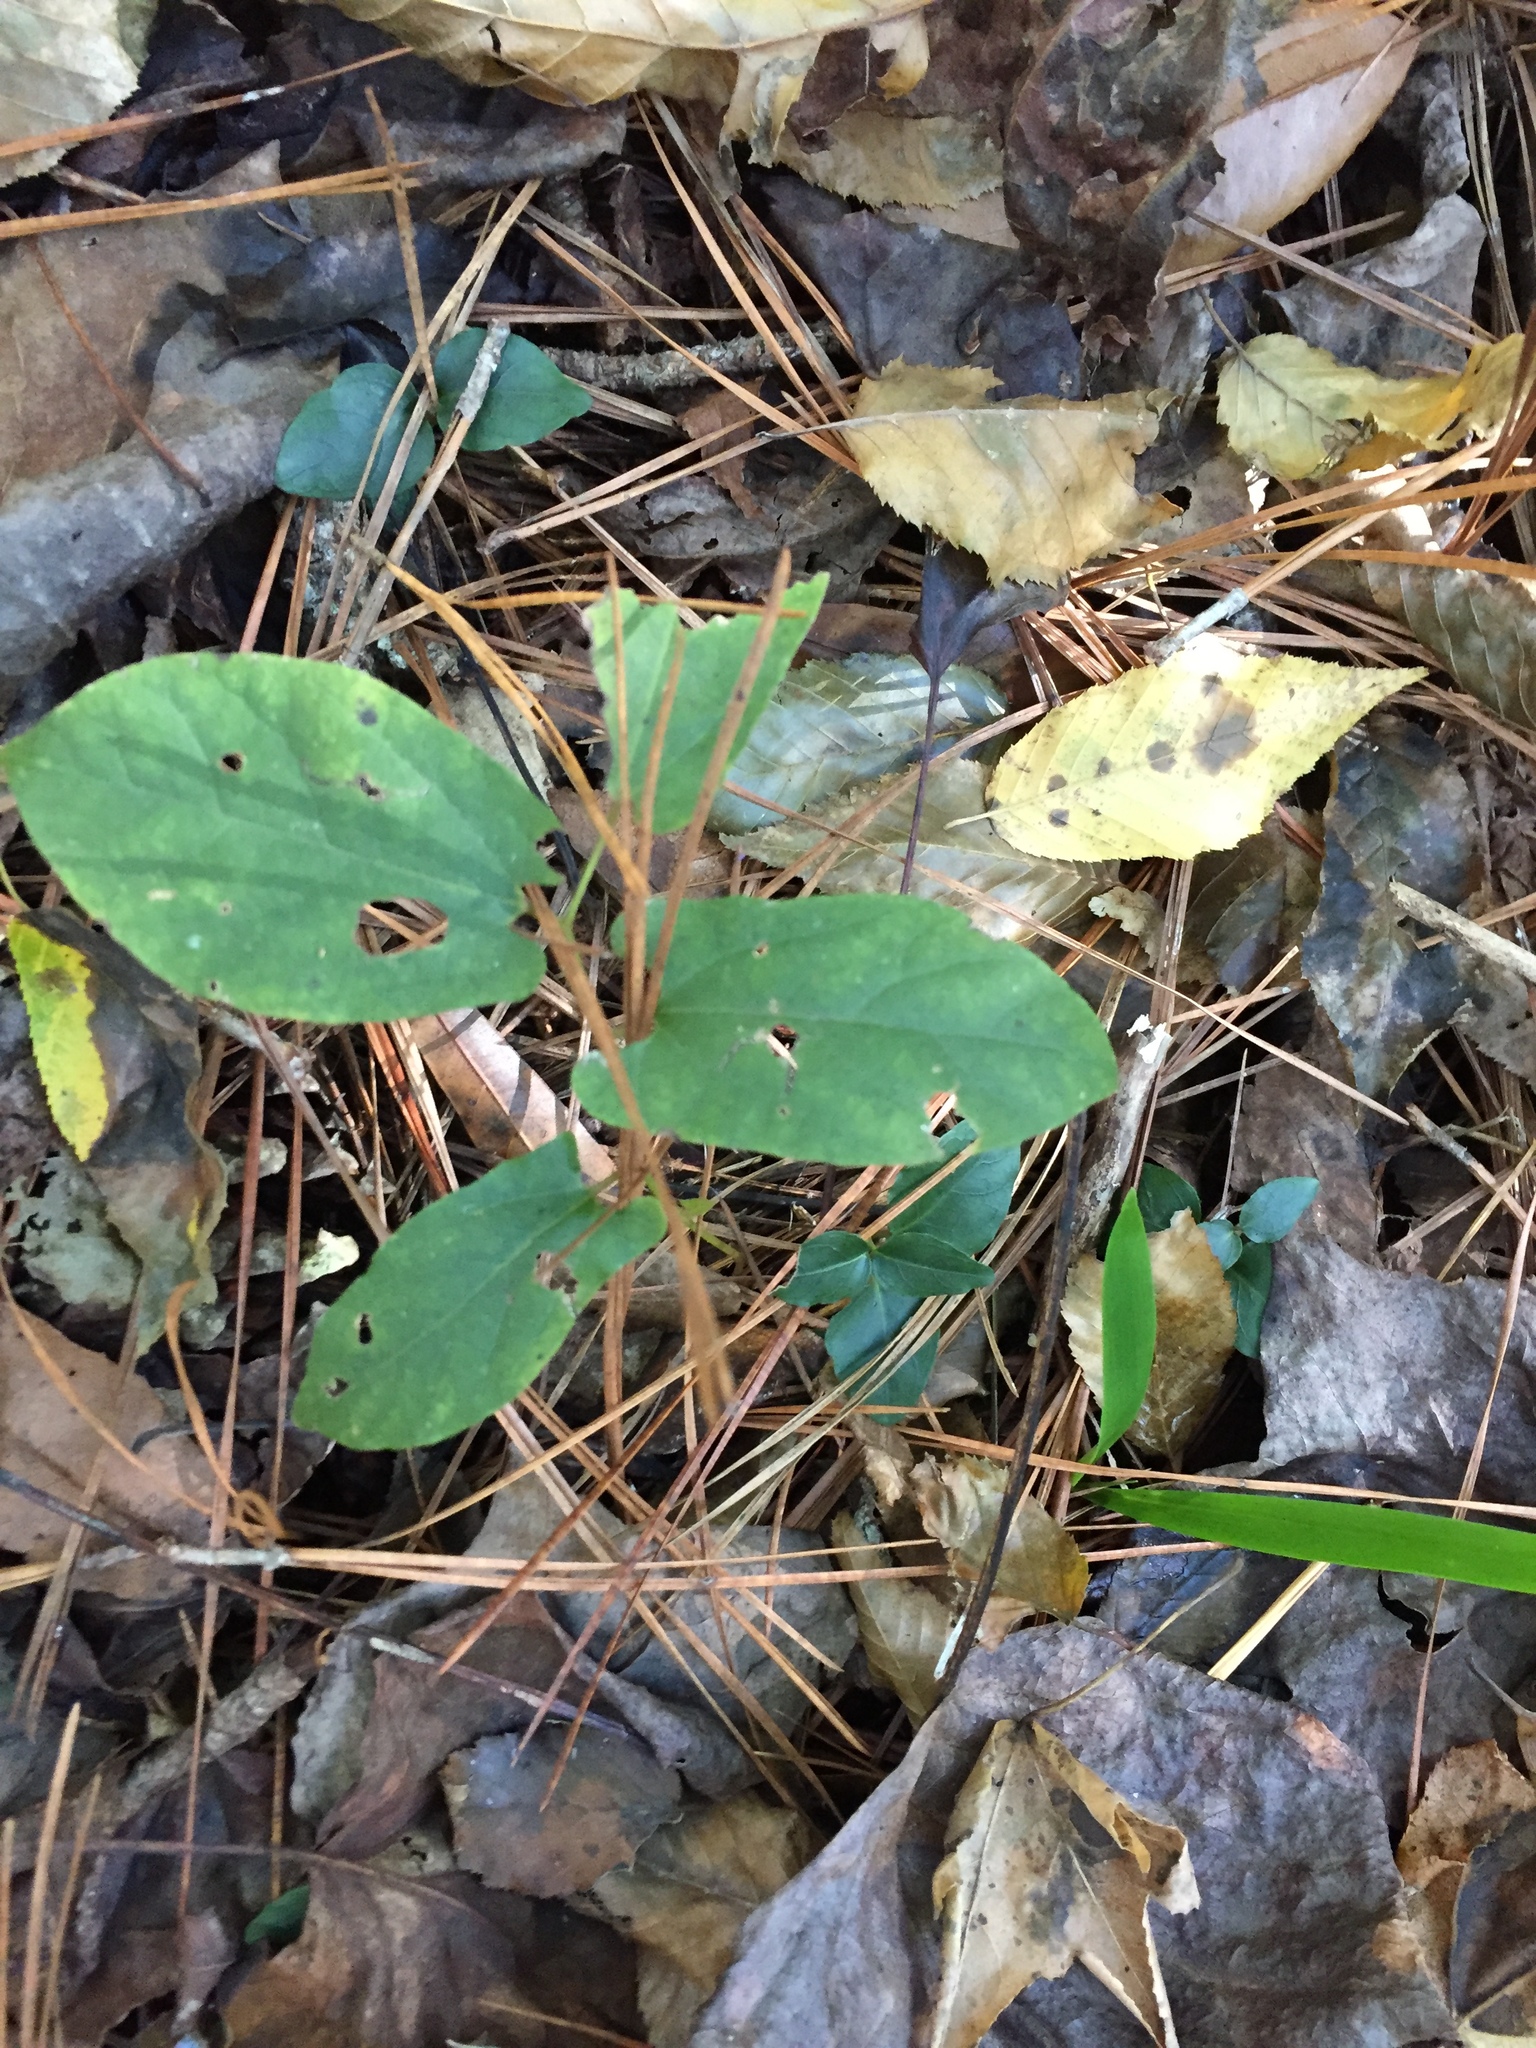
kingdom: Plantae
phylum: Tracheophyta
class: Magnoliopsida
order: Piperales
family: Aristolochiaceae
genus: Endodeca
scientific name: Endodeca serpentaria
